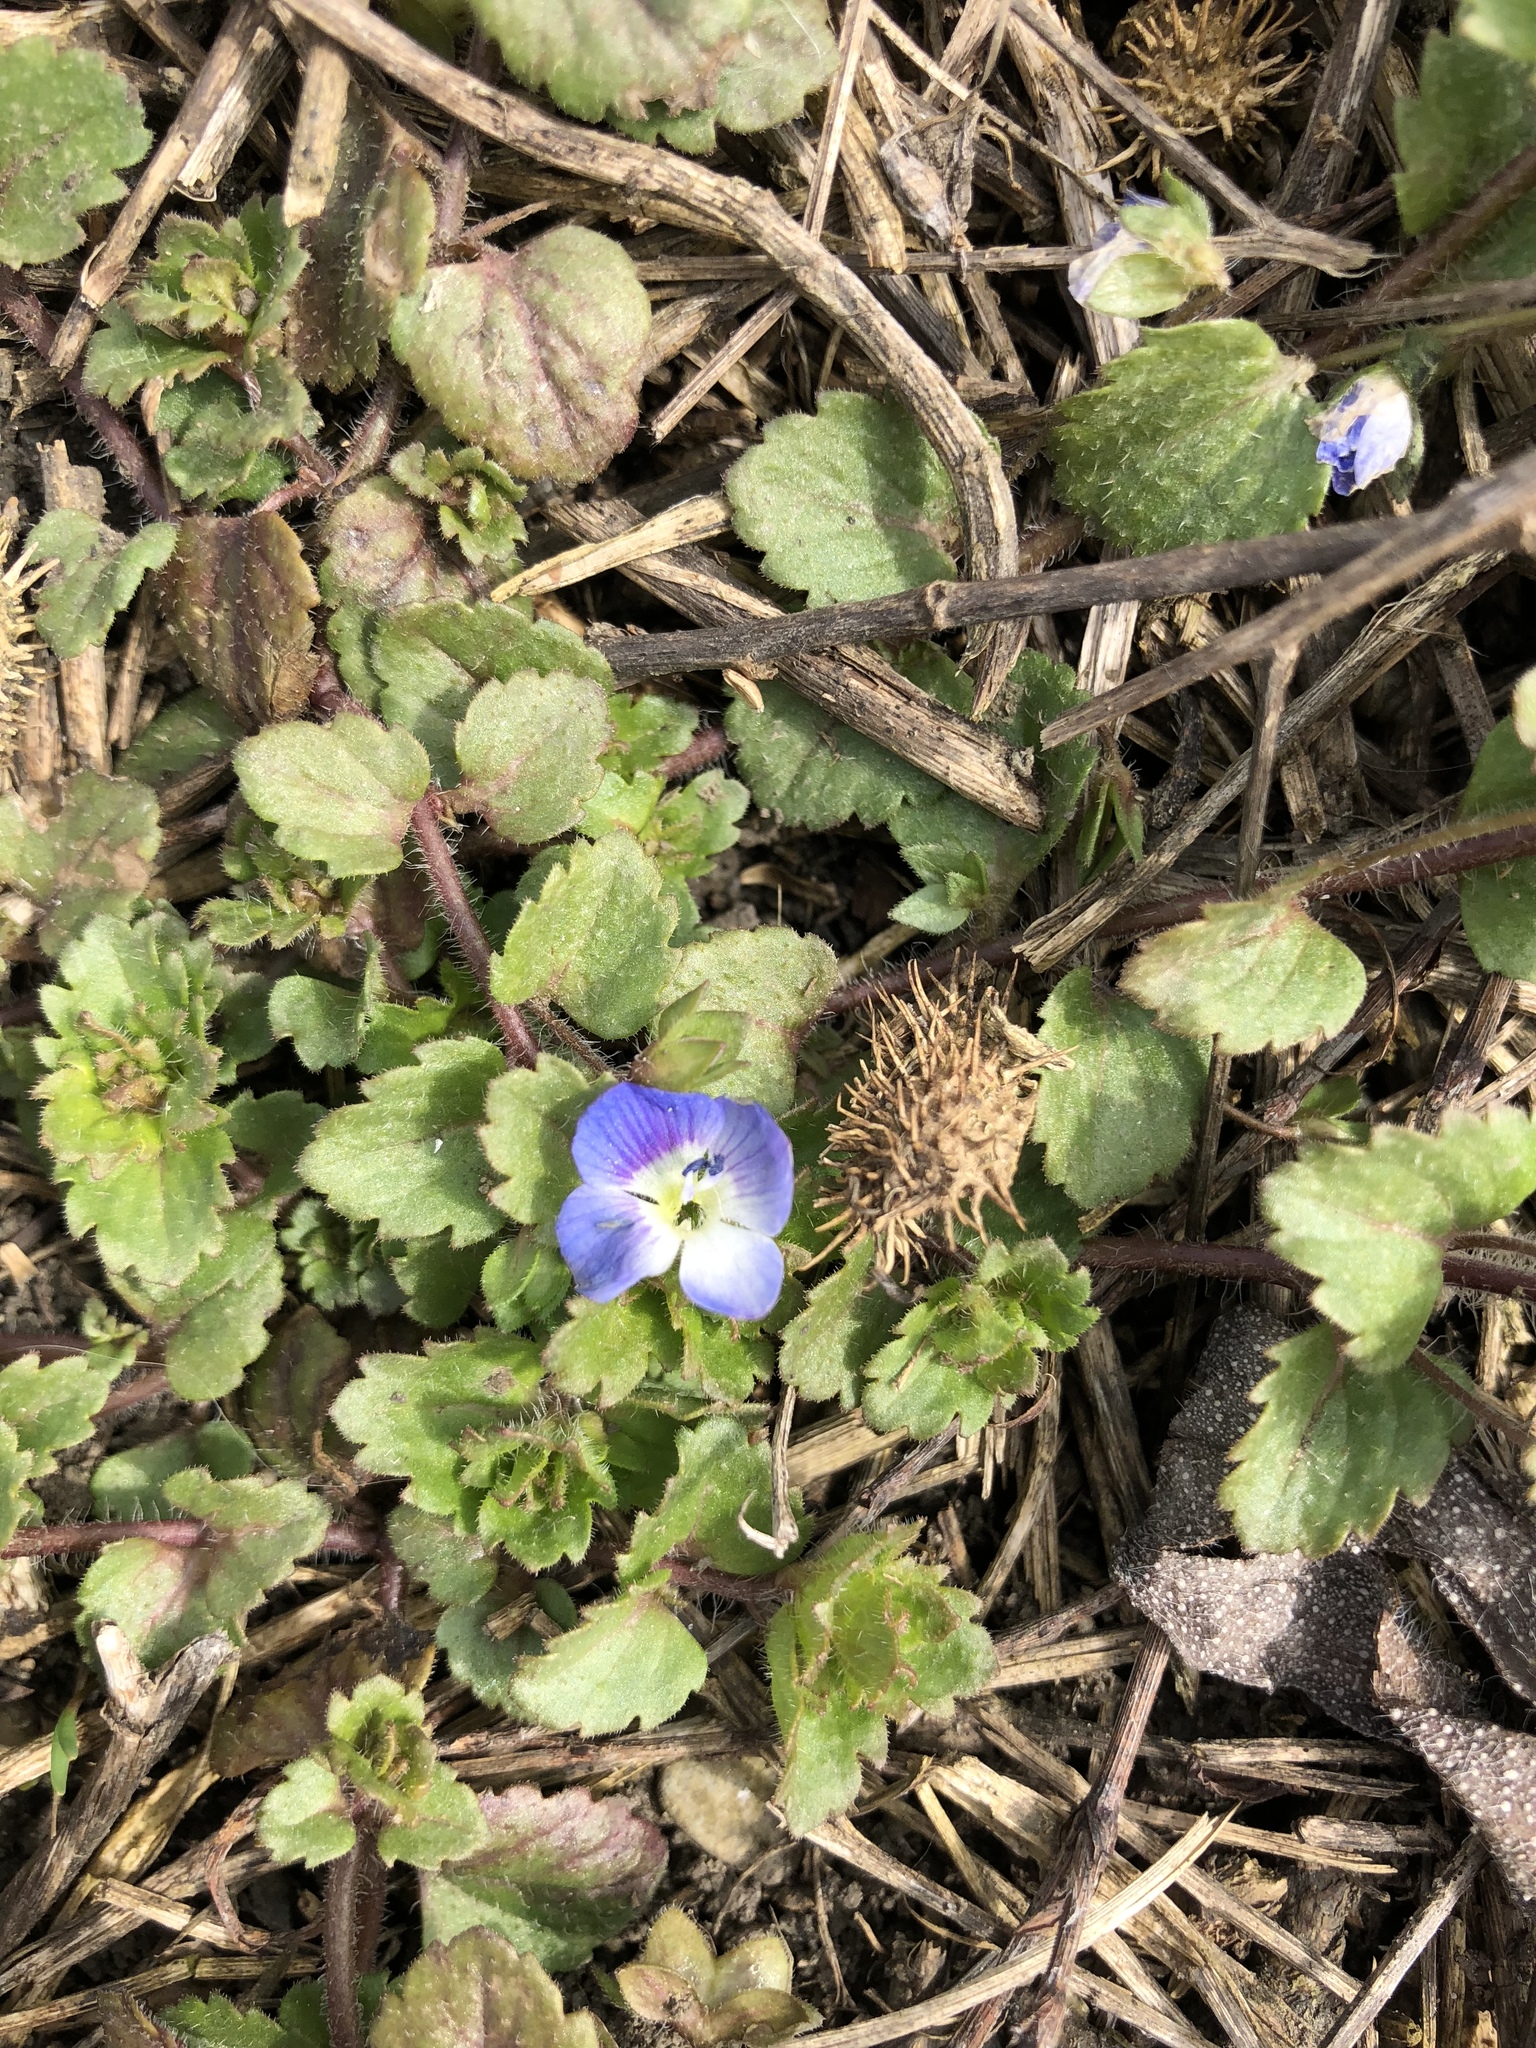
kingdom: Plantae
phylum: Tracheophyta
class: Magnoliopsida
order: Lamiales
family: Plantaginaceae
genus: Veronica
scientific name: Veronica persica
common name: Common field-speedwell
